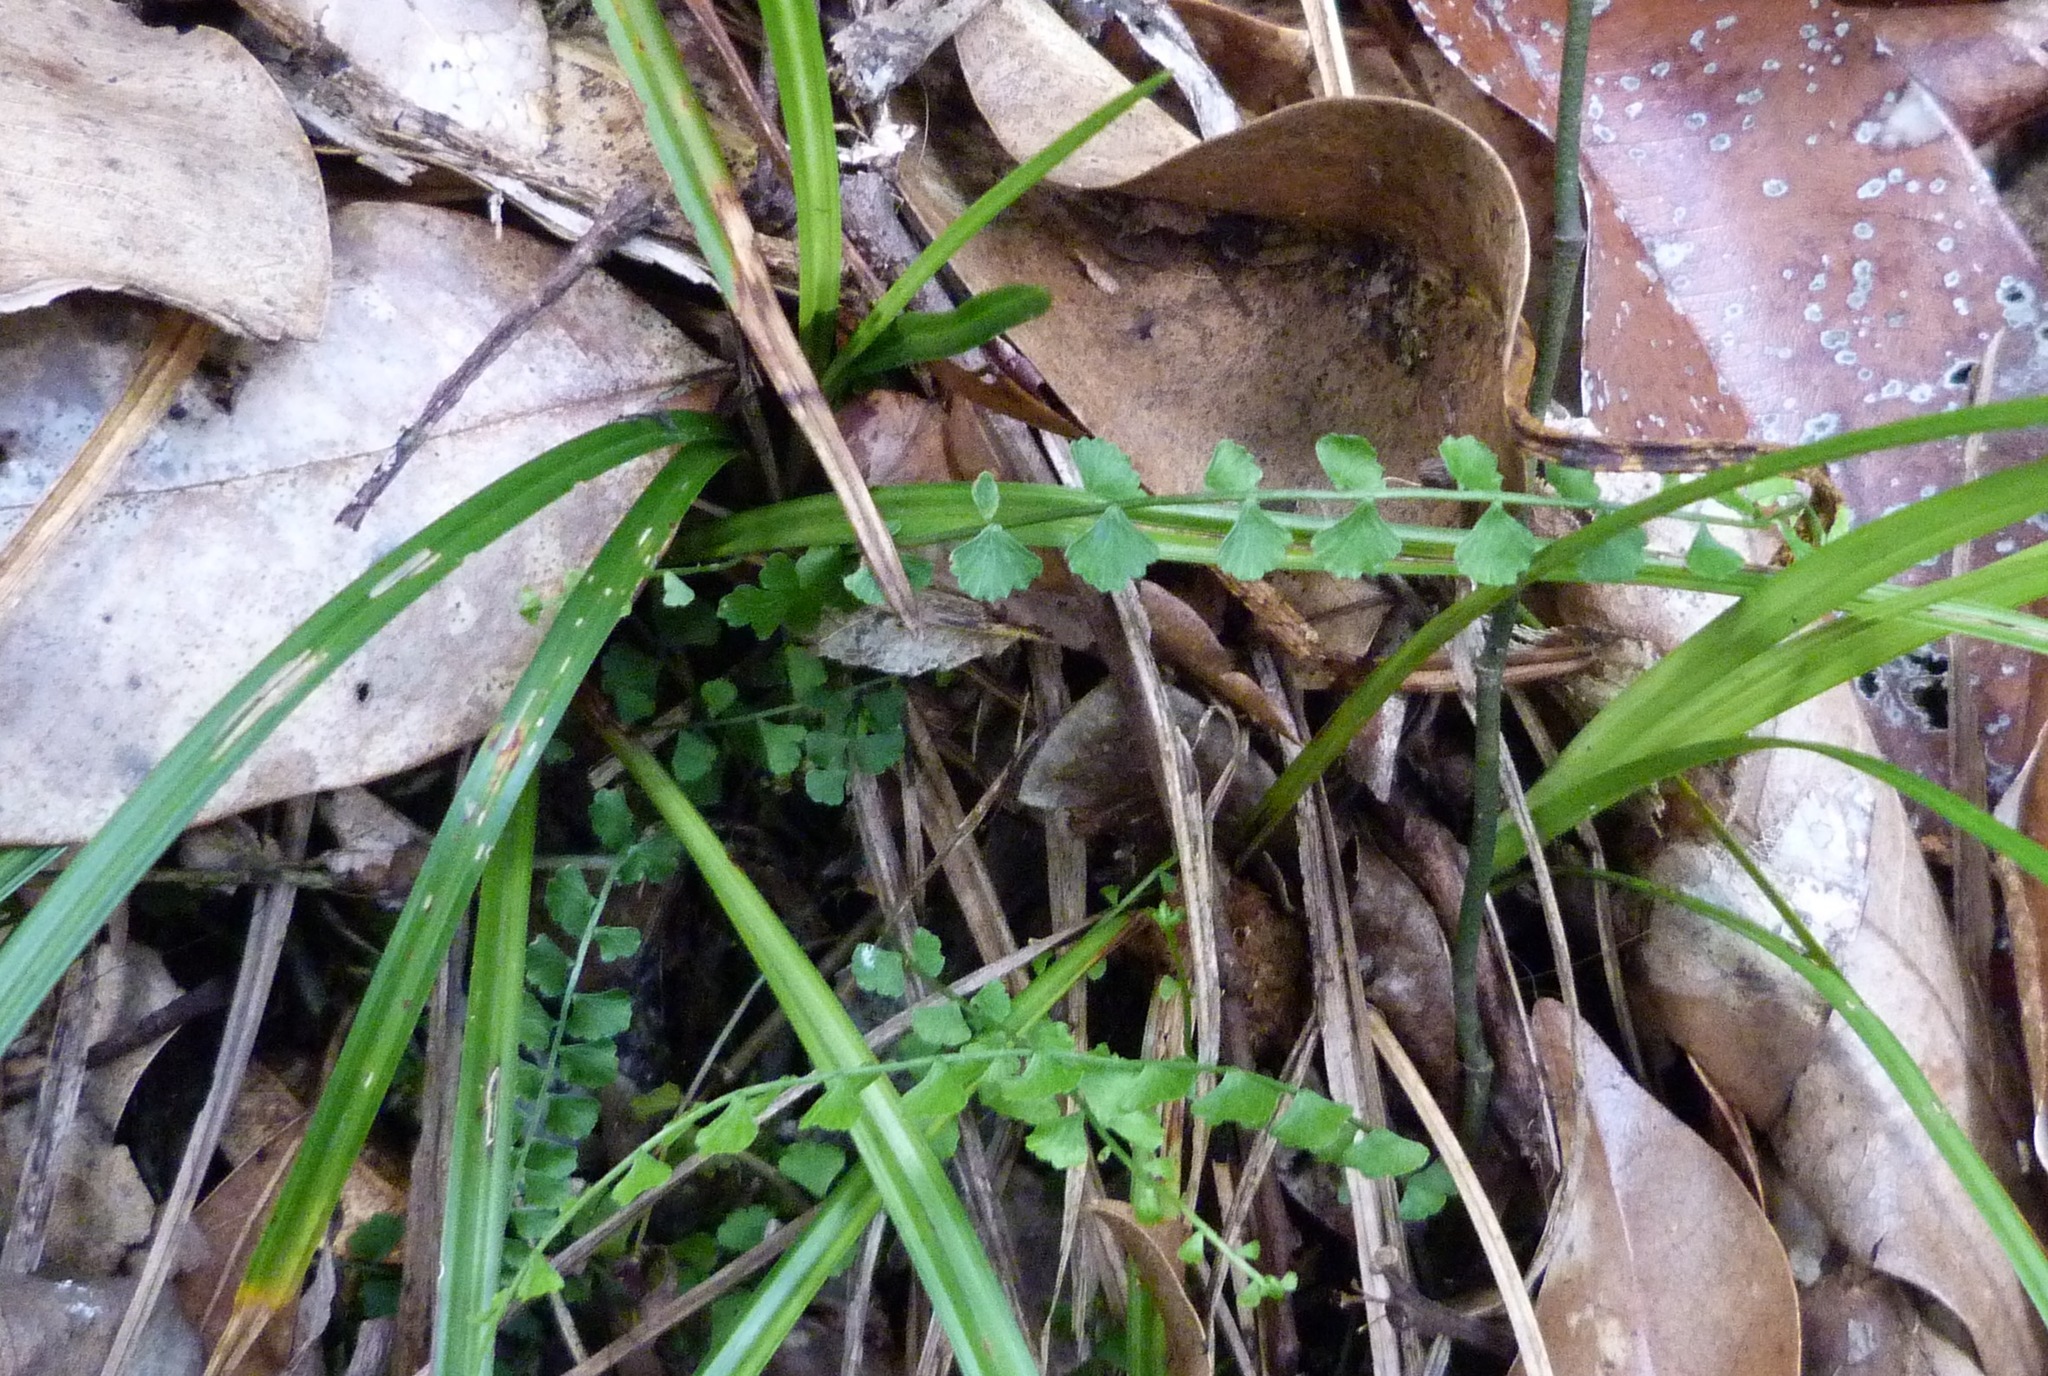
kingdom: Plantae
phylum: Tracheophyta
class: Polypodiopsida
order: Polypodiales
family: Aspleniaceae
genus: Asplenium
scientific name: Asplenium flabellifolium
